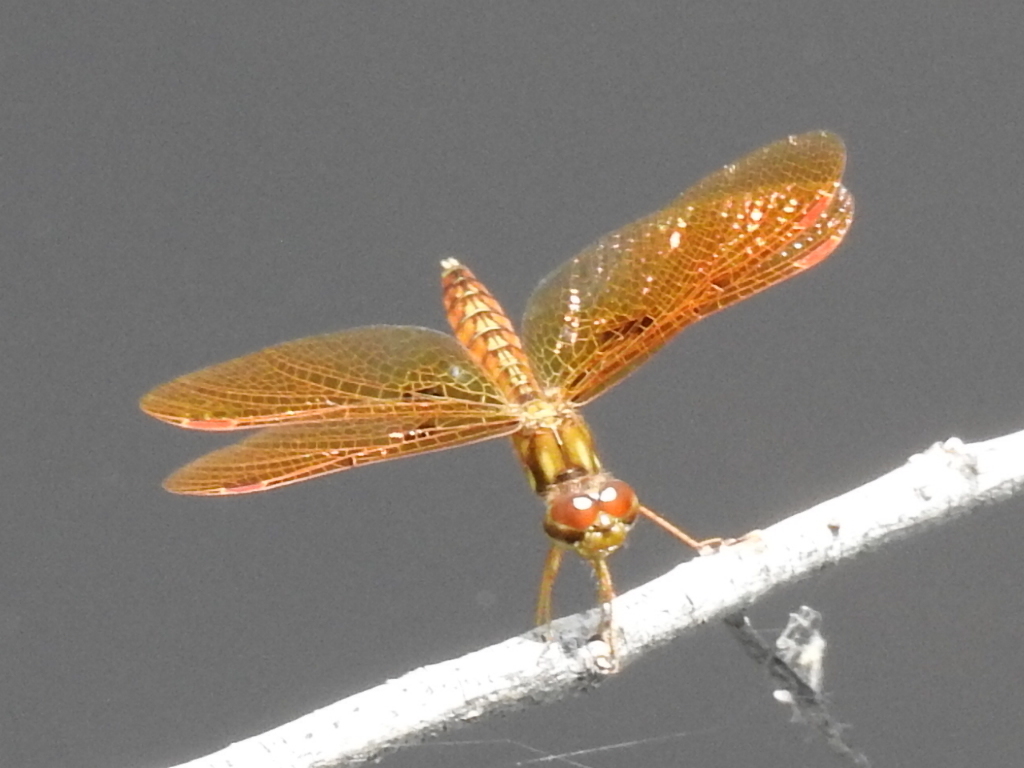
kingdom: Animalia
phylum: Arthropoda
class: Insecta
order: Odonata
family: Libellulidae
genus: Perithemis
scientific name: Perithemis tenera
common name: Eastern amberwing
